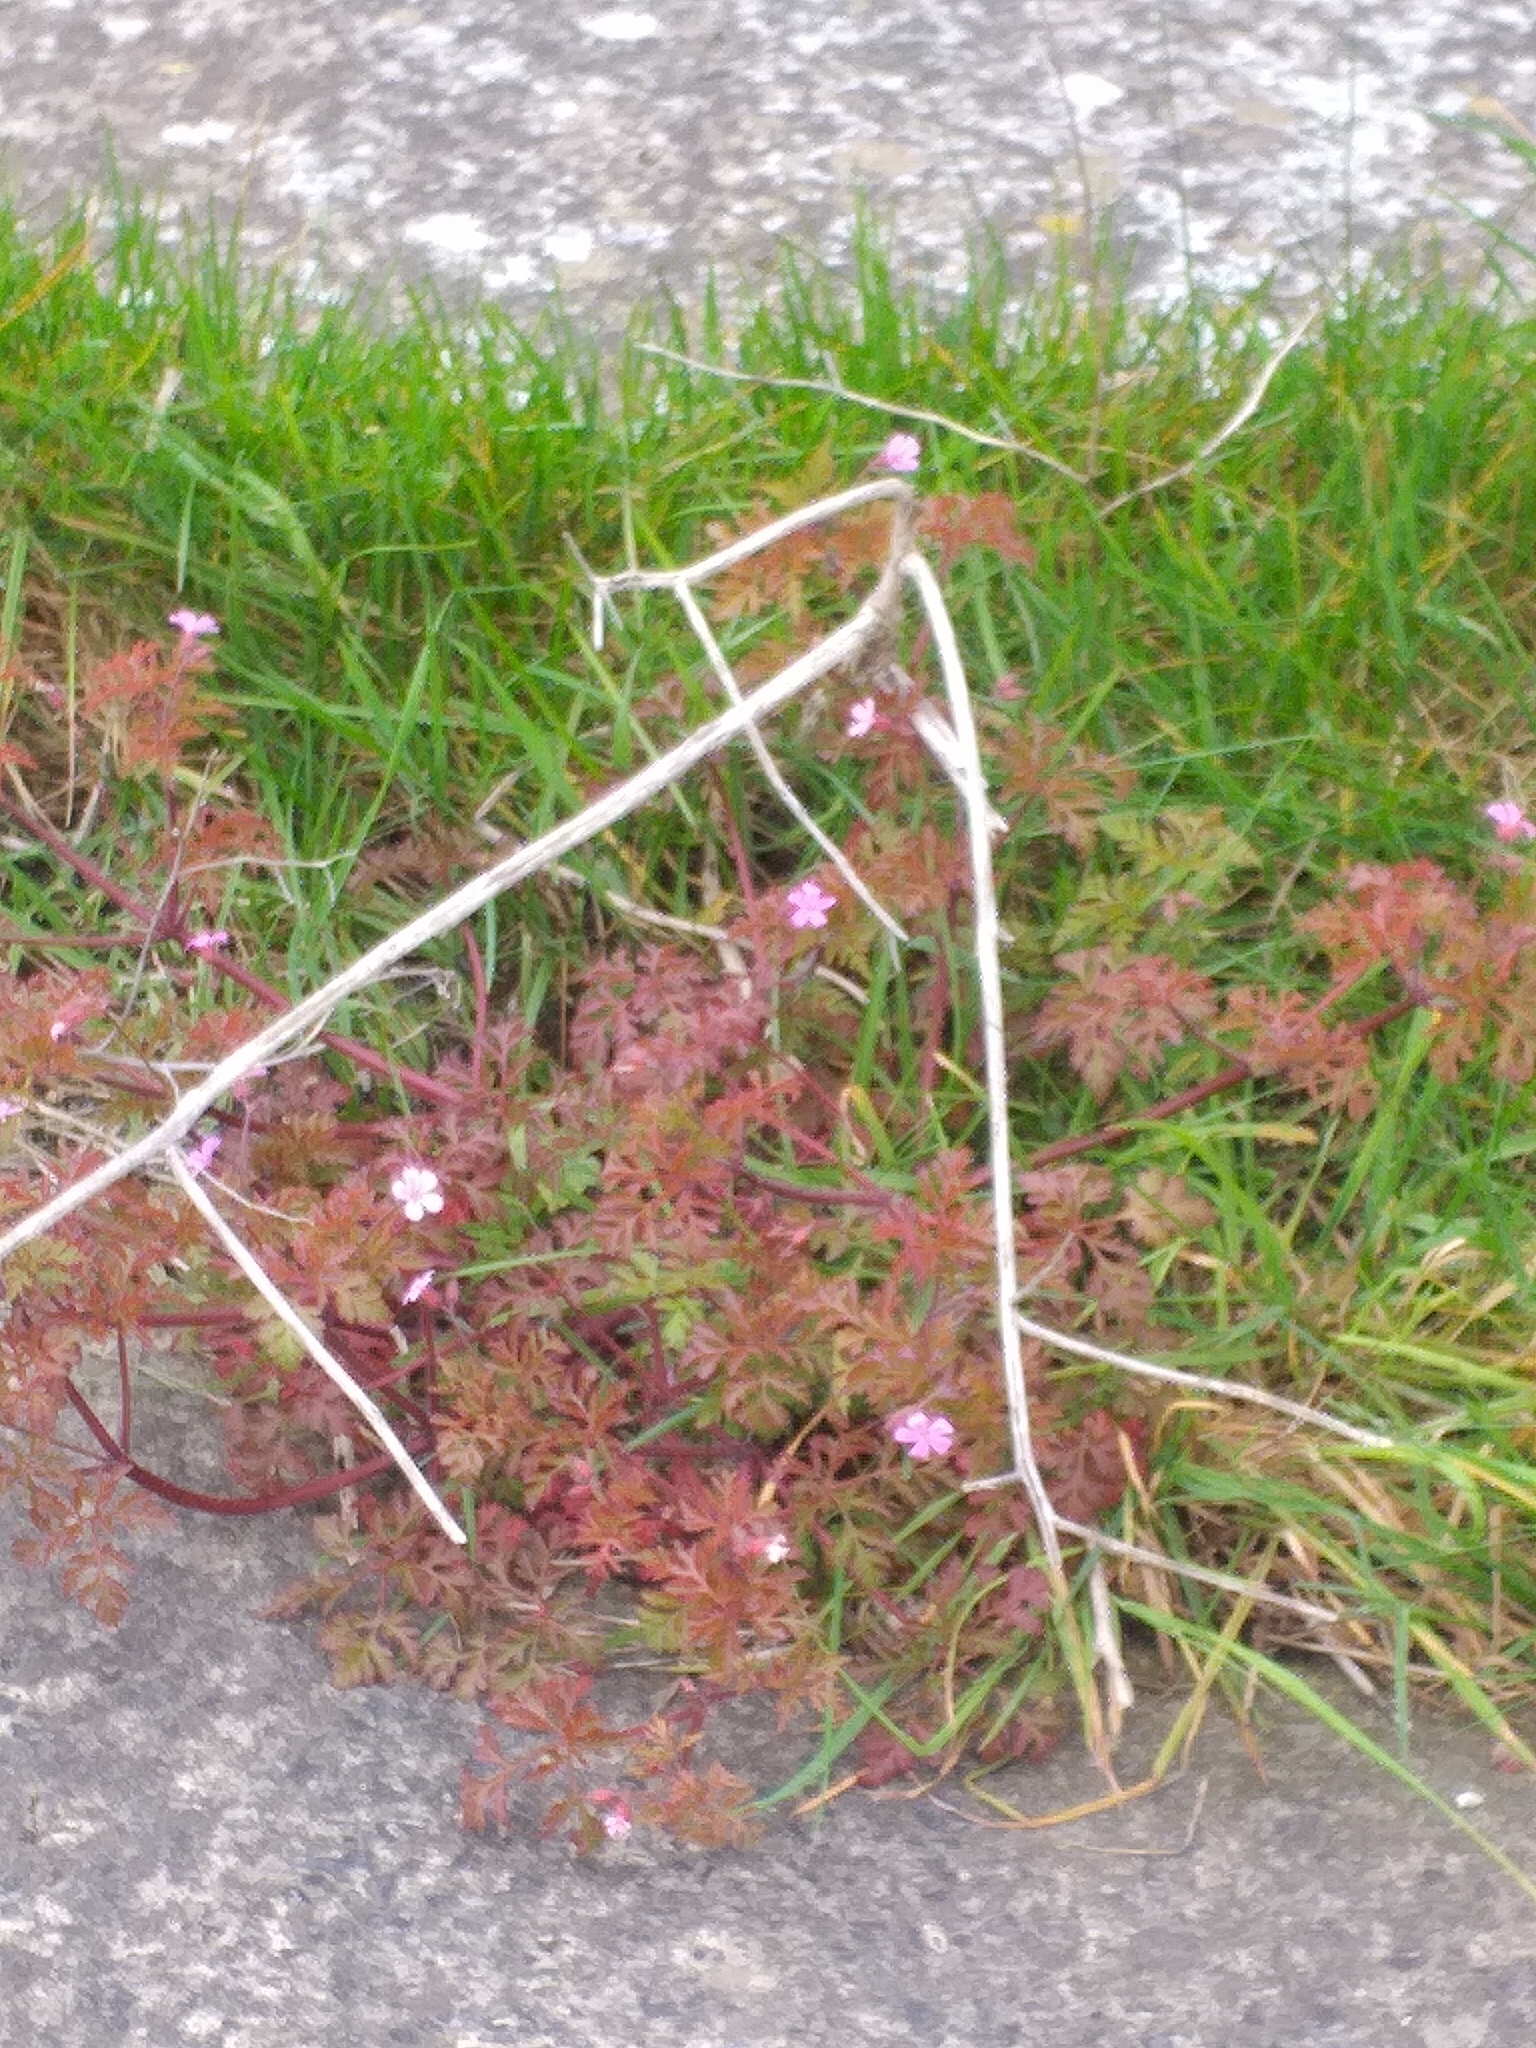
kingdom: Plantae
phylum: Tracheophyta
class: Magnoliopsida
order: Geraniales
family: Geraniaceae
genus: Geranium
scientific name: Geranium robertianum
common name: Herb-robert
